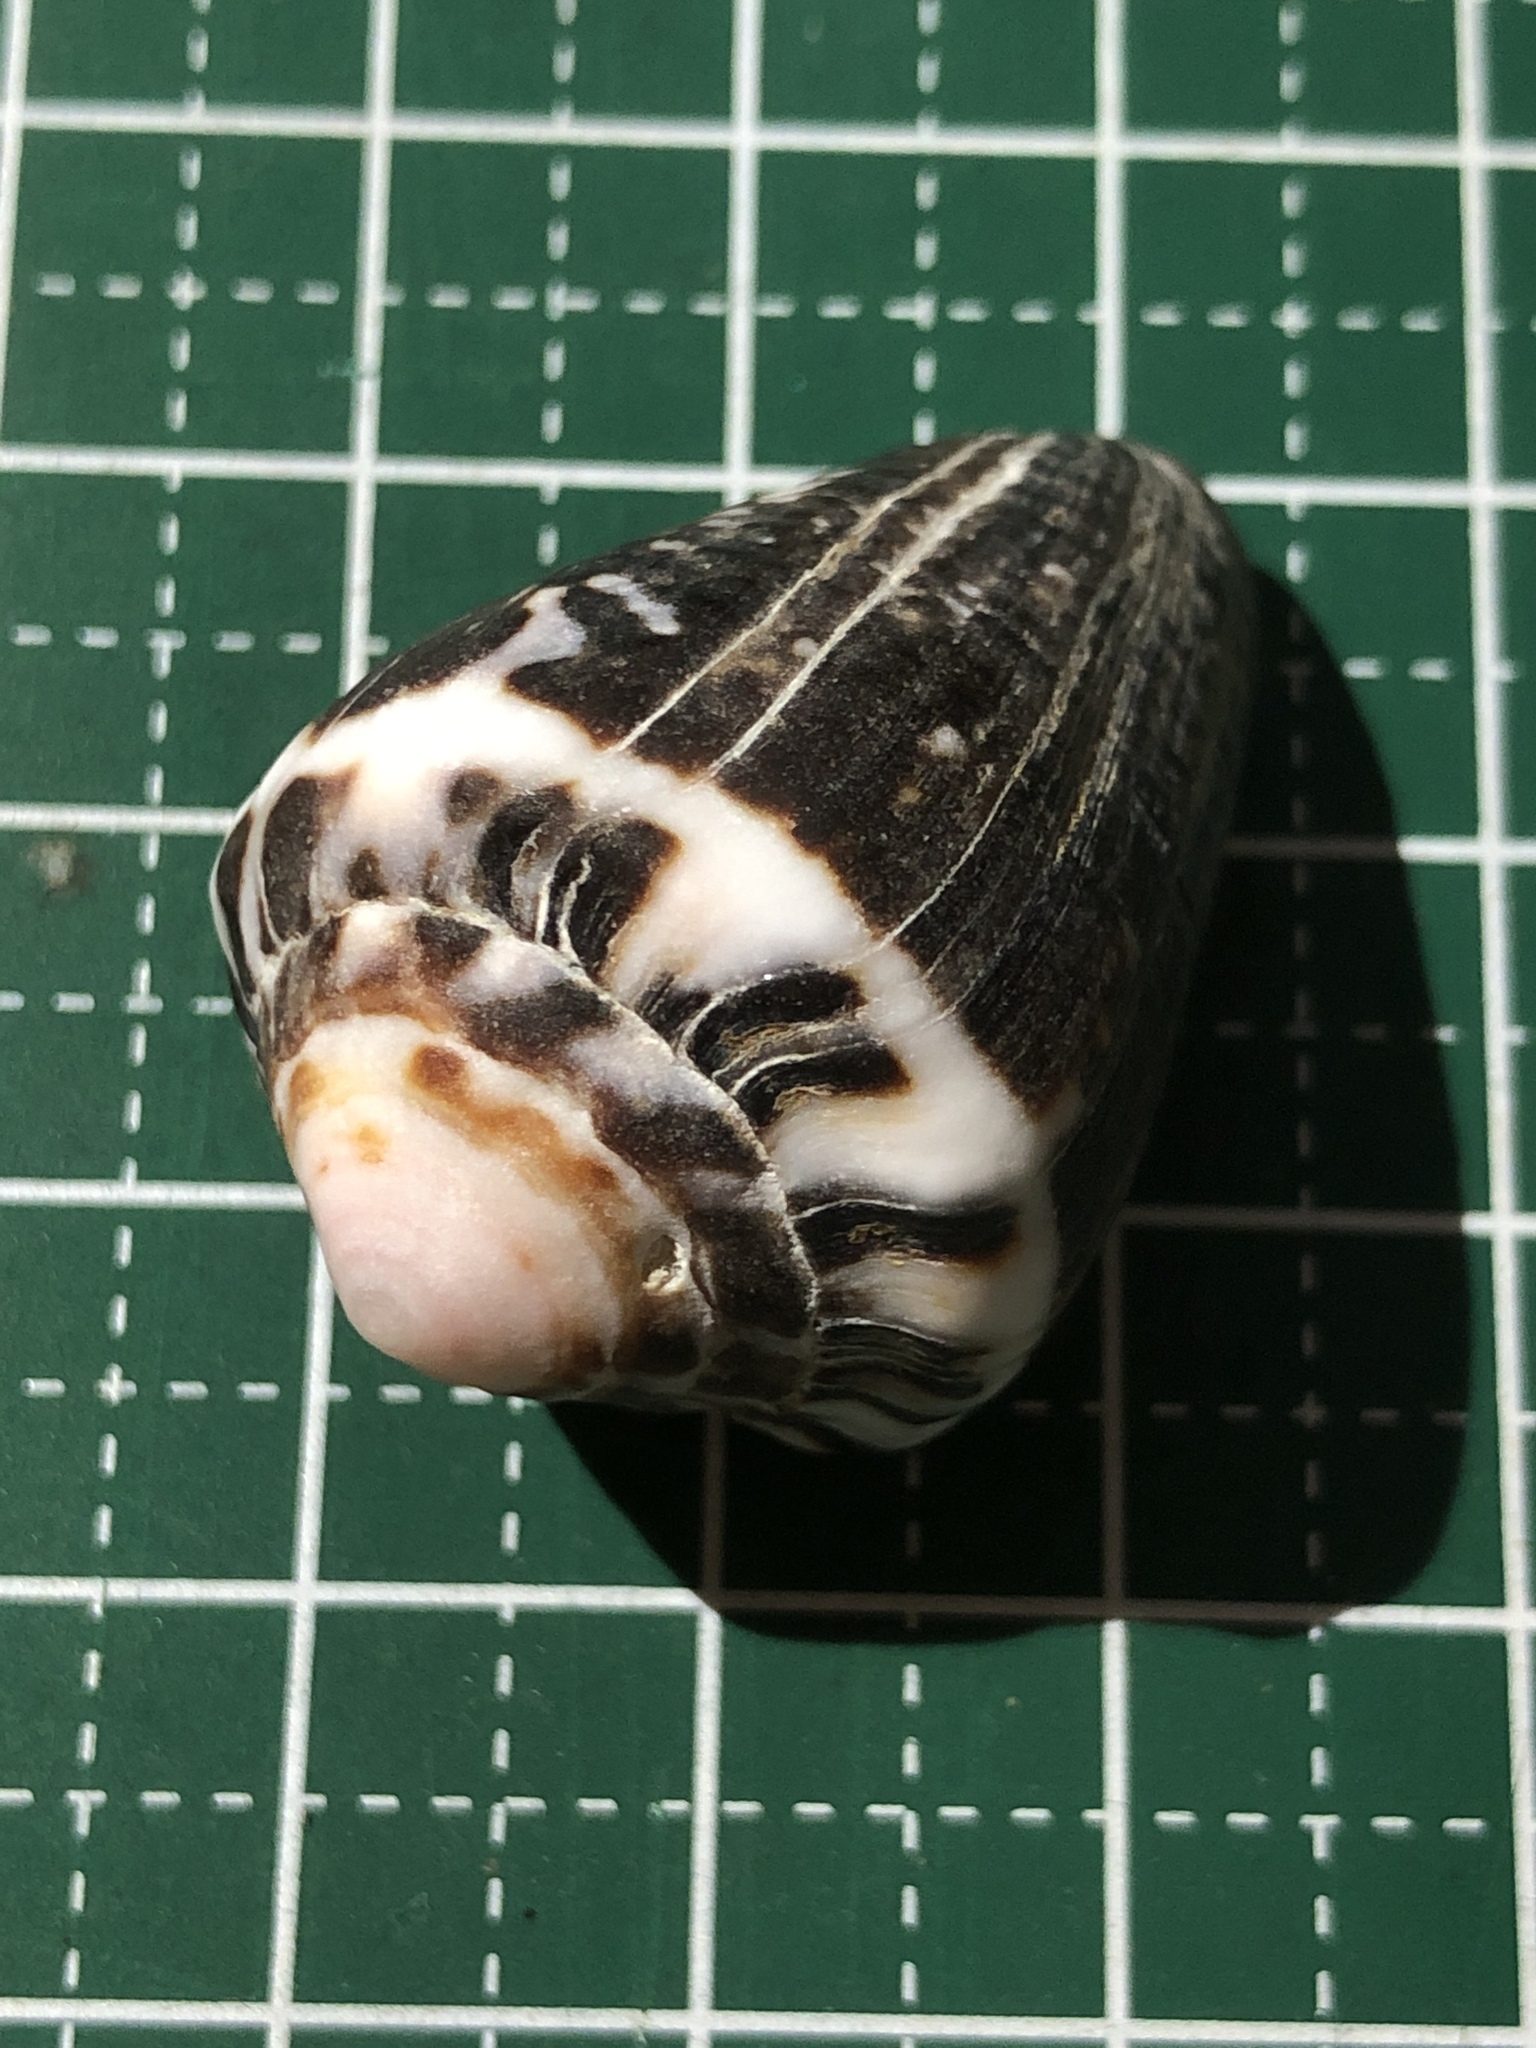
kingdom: Animalia
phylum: Mollusca
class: Gastropoda
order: Neogastropoda
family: Conidae
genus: Conus
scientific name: Conus chaldaeus
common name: Astrologer's cone
